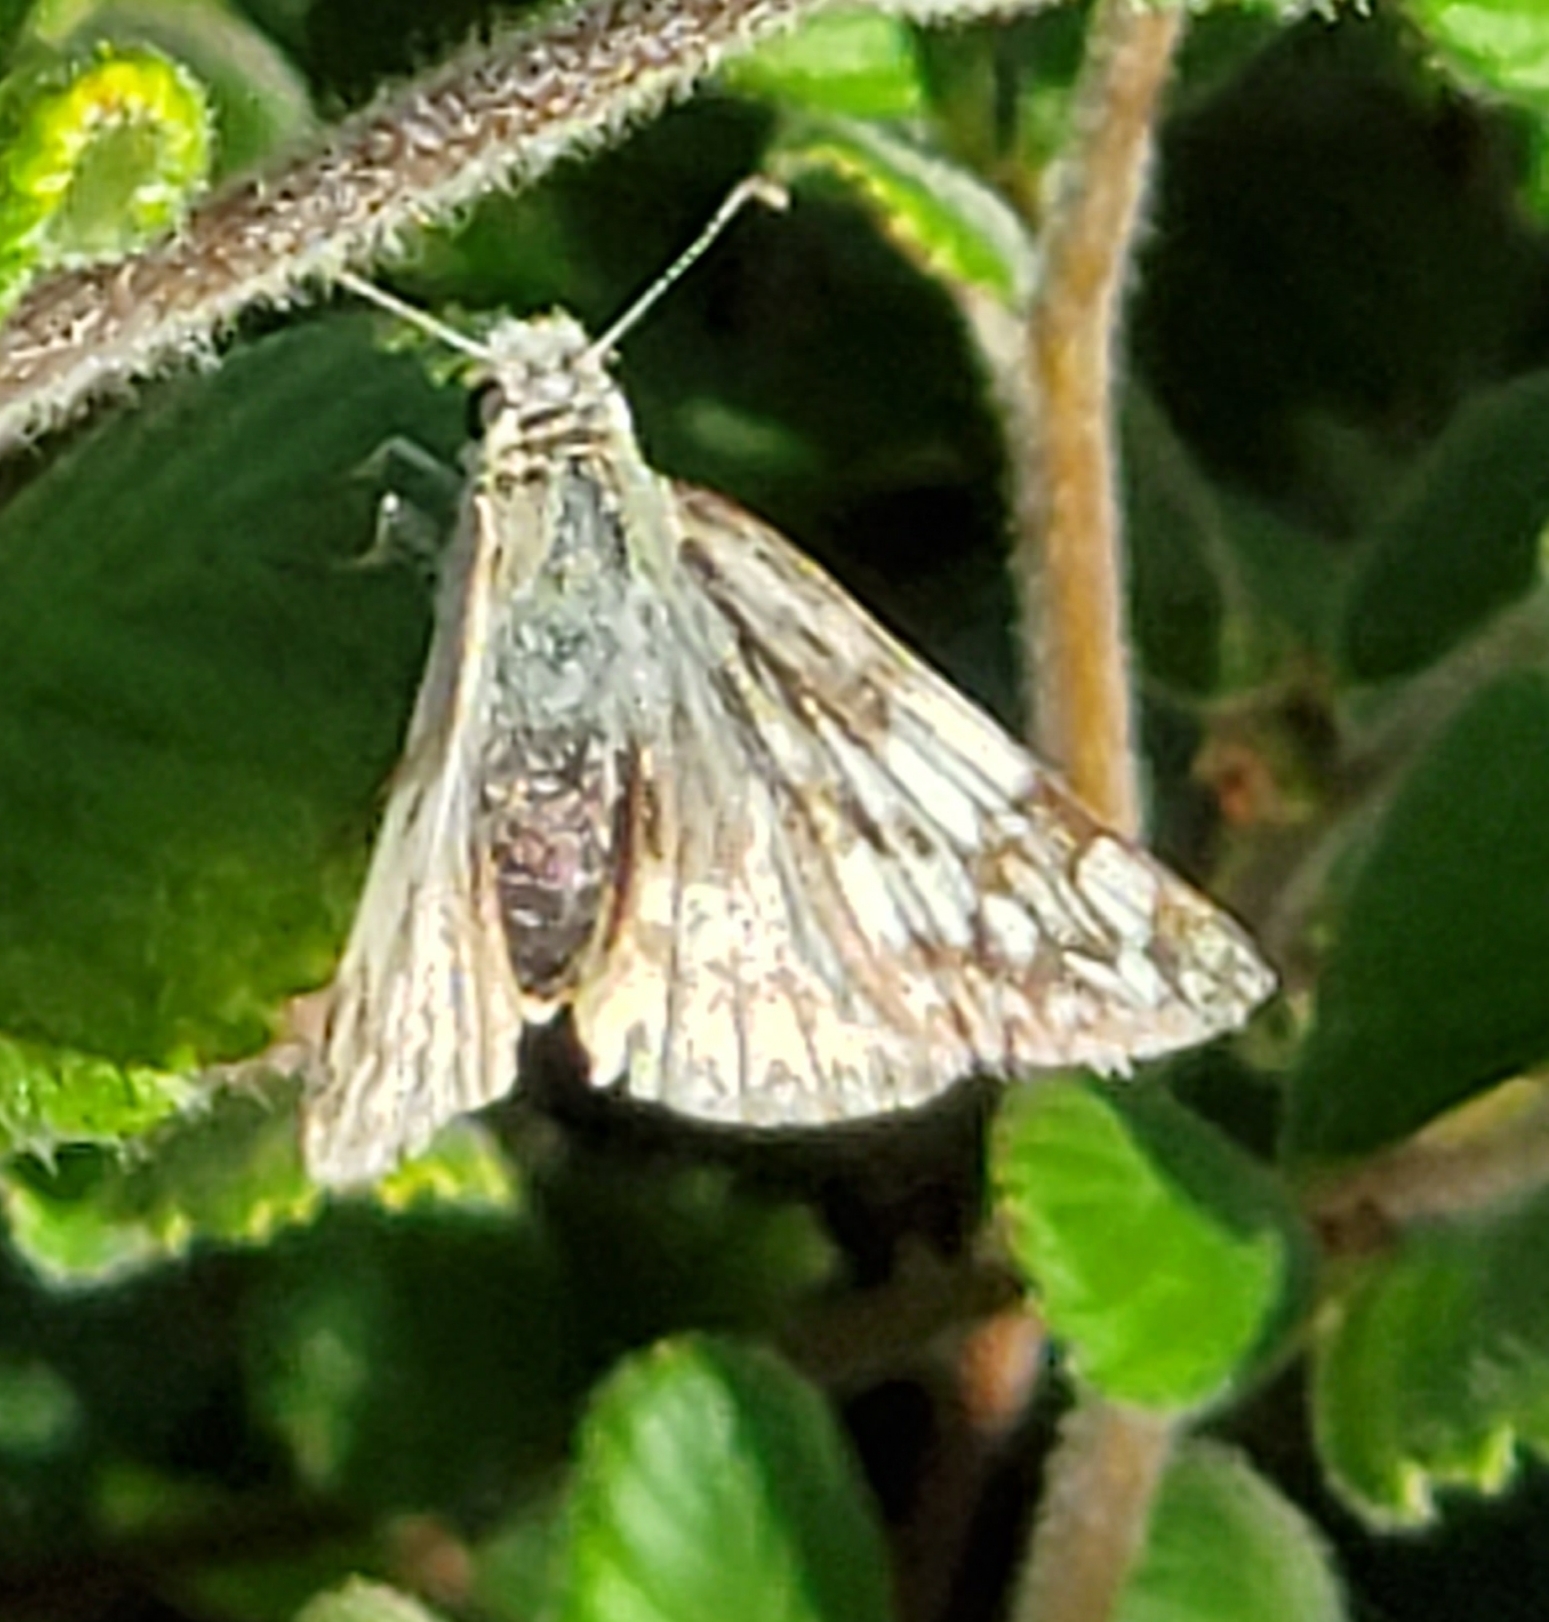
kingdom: Animalia
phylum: Arthropoda
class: Insecta
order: Lepidoptera
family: Hesperiidae
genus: Burnsius
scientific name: Burnsius albezens
